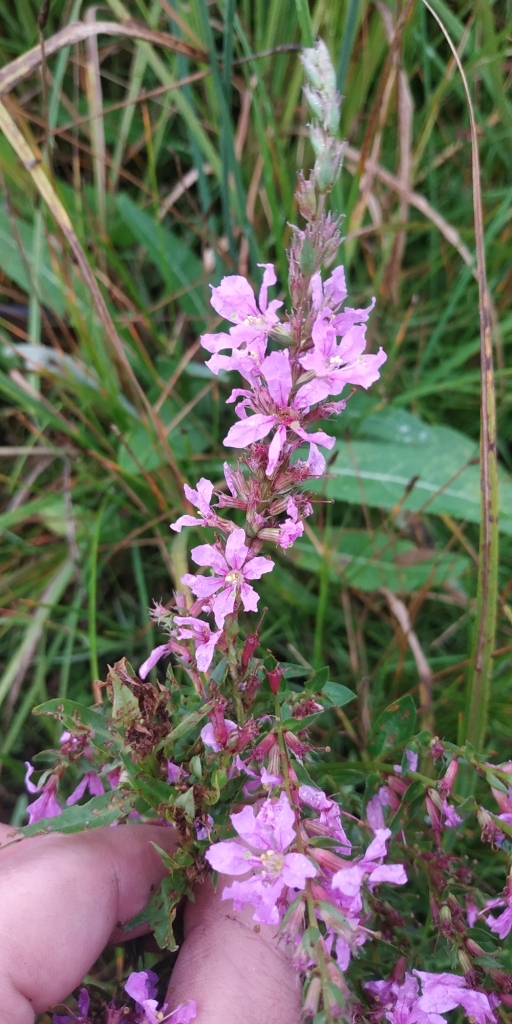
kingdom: Plantae
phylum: Tracheophyta
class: Magnoliopsida
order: Myrtales
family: Lythraceae
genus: Lythrum
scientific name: Lythrum salicaria
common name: Purple loosestrife
